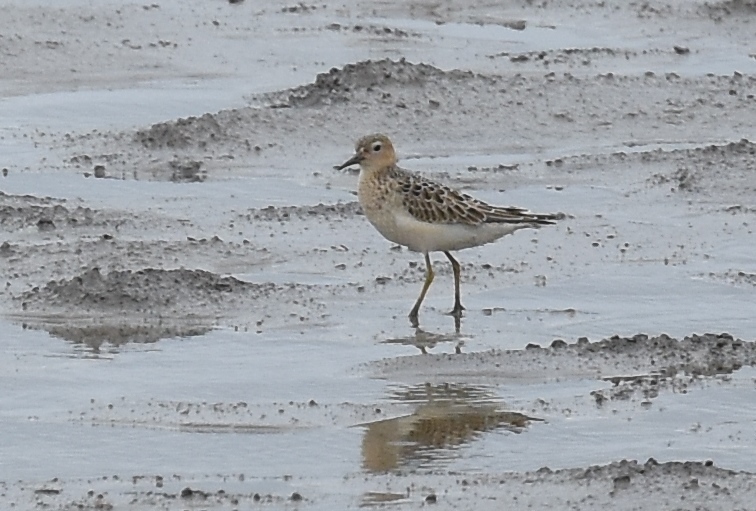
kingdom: Animalia
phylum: Chordata
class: Aves
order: Charadriiformes
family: Scolopacidae
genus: Calidris
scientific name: Calidris subruficollis
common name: Buff-breasted sandpiper
